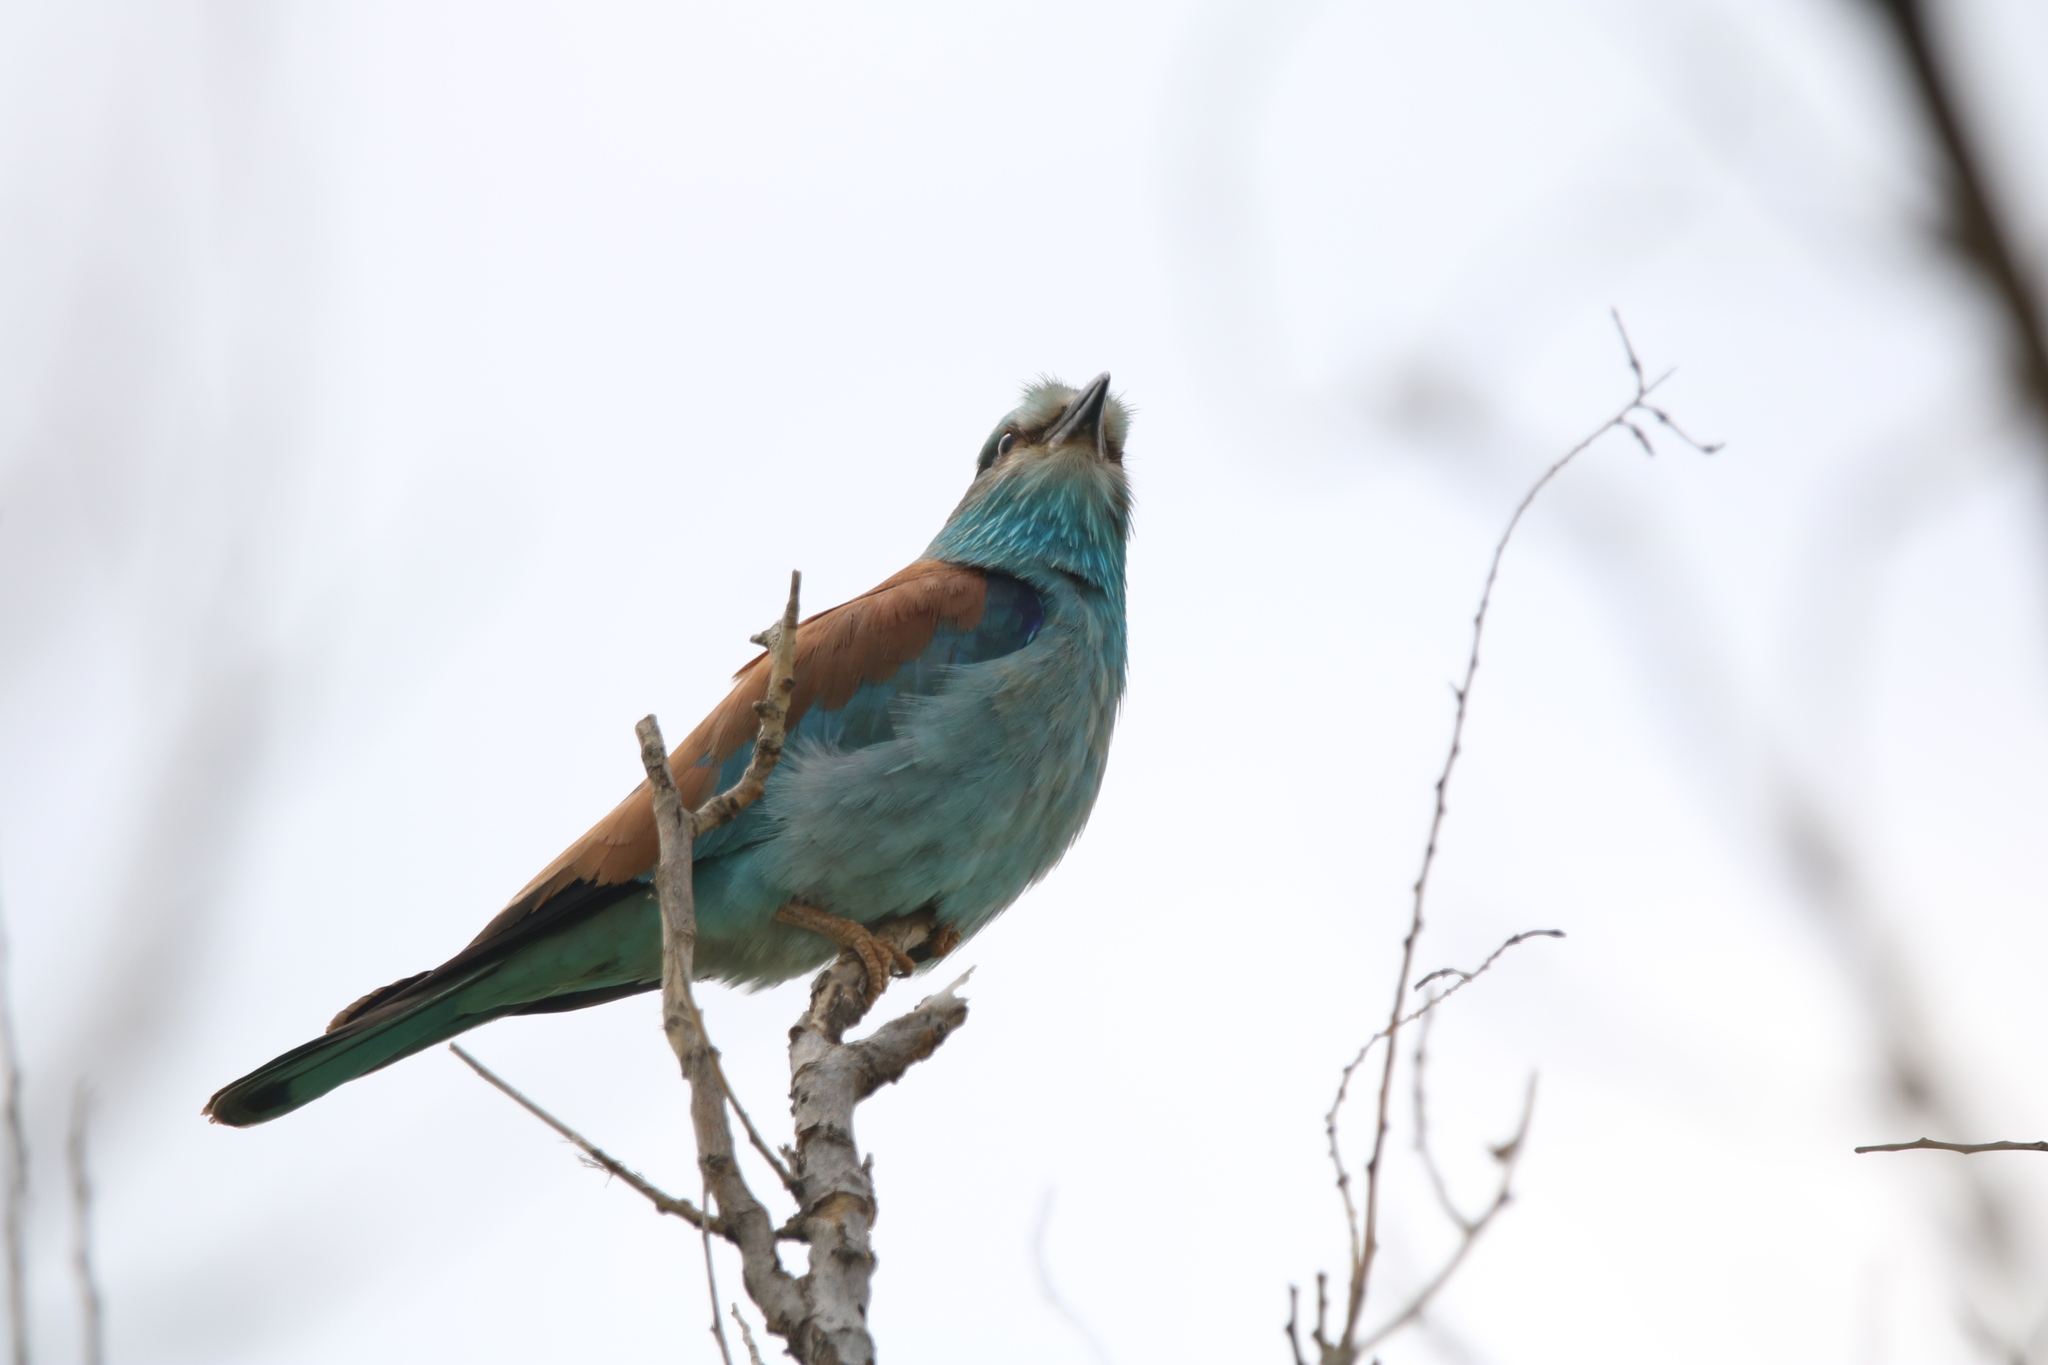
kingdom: Animalia
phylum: Chordata
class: Aves
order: Coraciiformes
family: Coraciidae
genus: Coracias
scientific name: Coracias garrulus
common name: European roller
